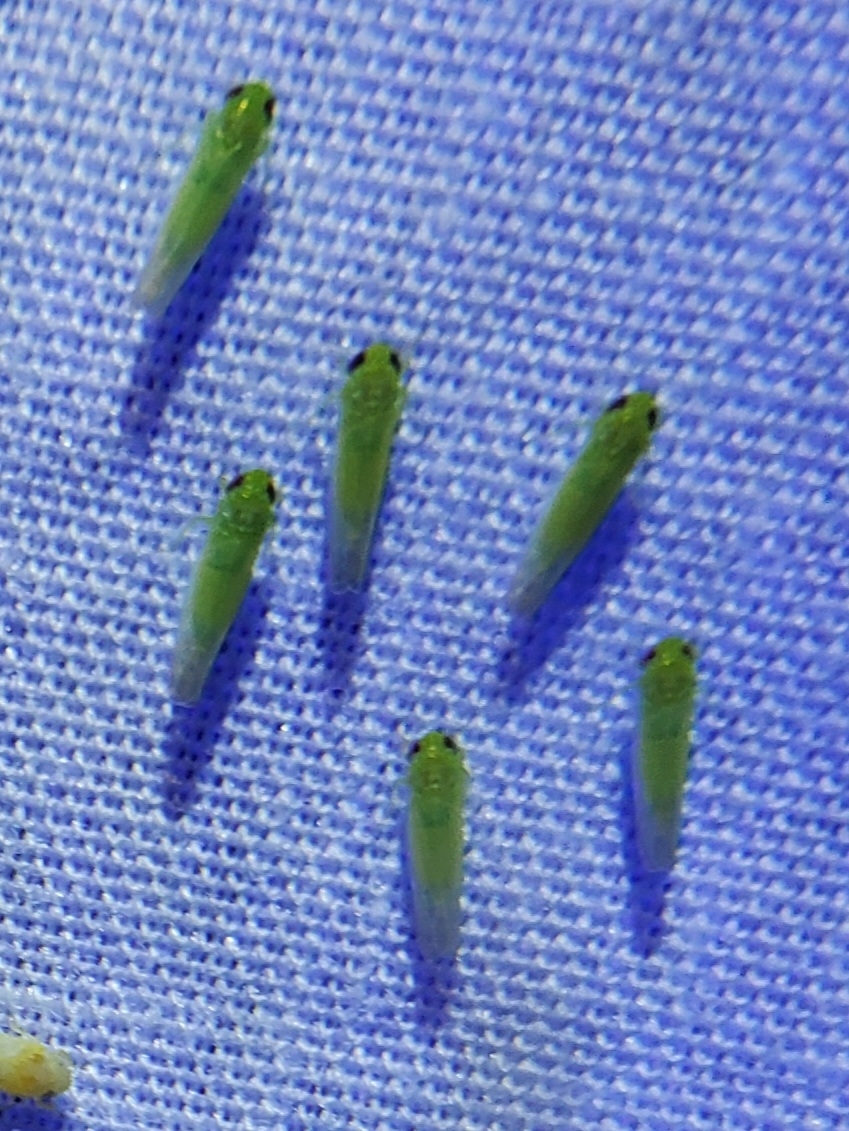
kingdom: Animalia
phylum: Arthropoda
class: Insecta
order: Hemiptera
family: Cicadellidae
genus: Empoasca
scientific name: Empoasca fabae
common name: Potato leafhopper
